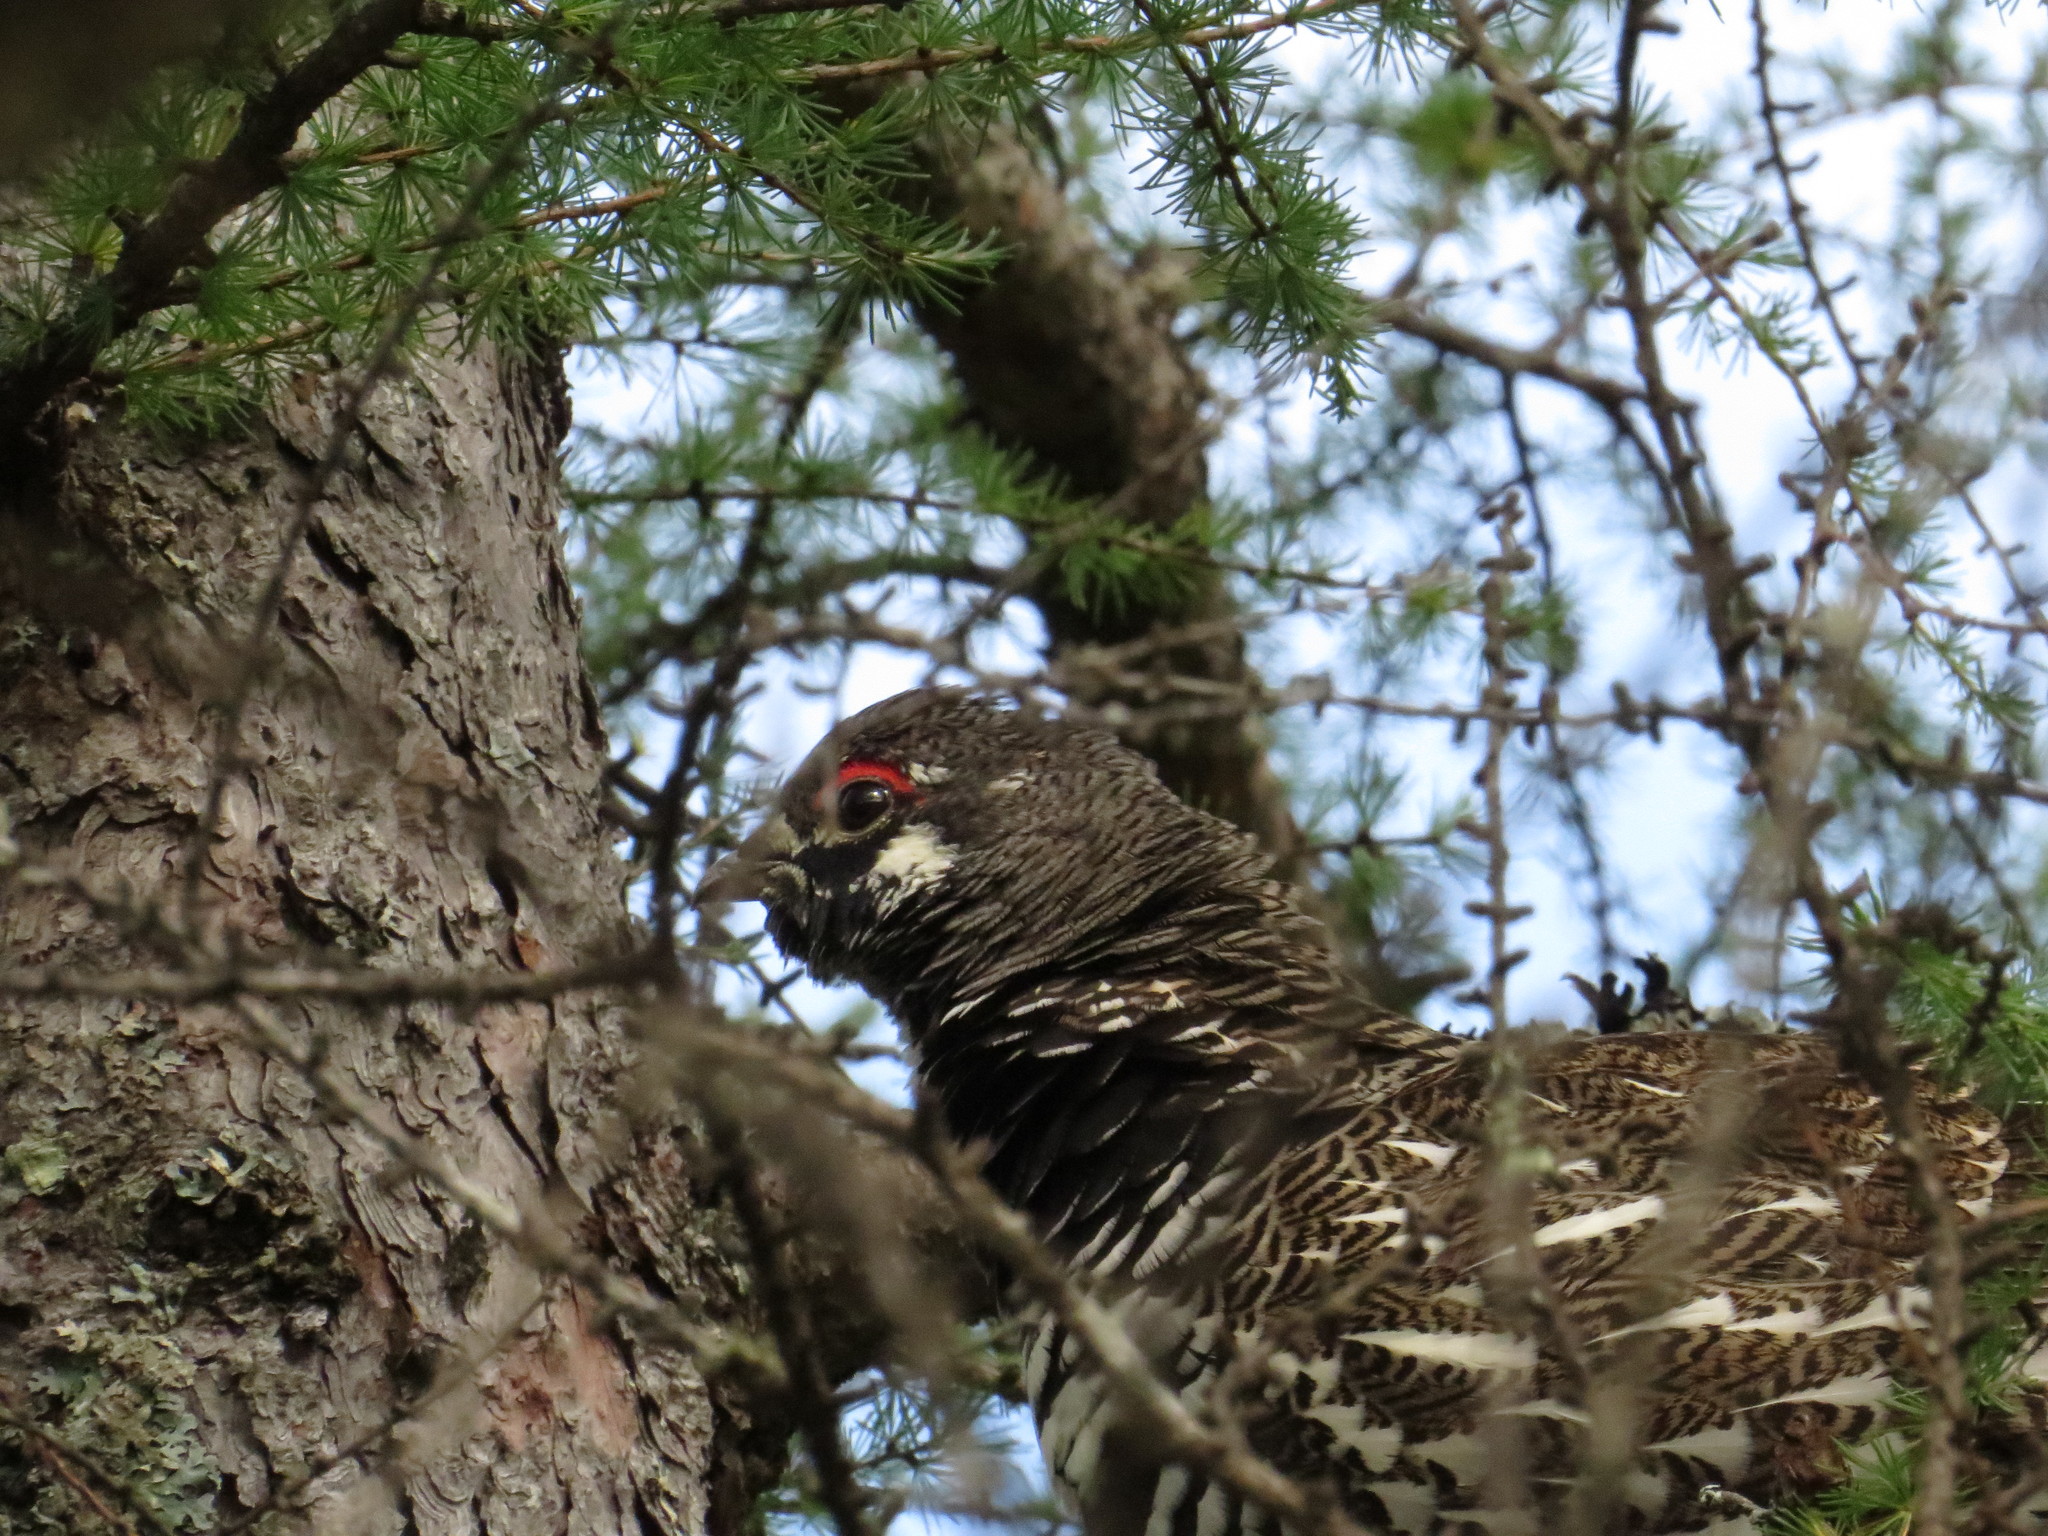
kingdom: Animalia
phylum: Chordata
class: Aves
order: Galliformes
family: Phasianidae
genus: Canachites
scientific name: Canachites canadensis
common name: Spruce grouse
